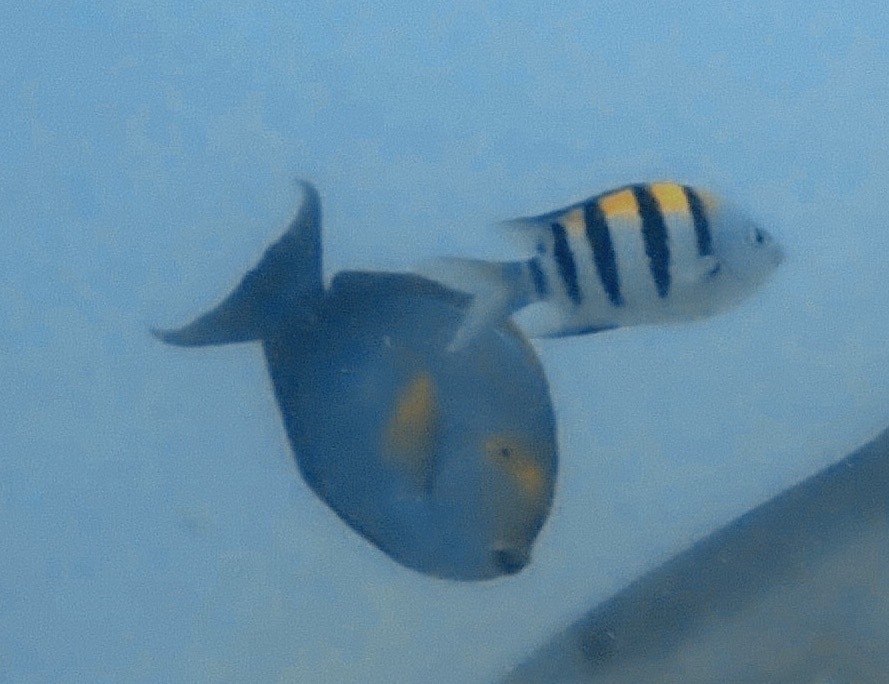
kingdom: Animalia
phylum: Chordata
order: Perciformes
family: Pomacentridae
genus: Abudefduf
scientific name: Abudefduf vaigiensis
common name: Indo-pacific sergeant
